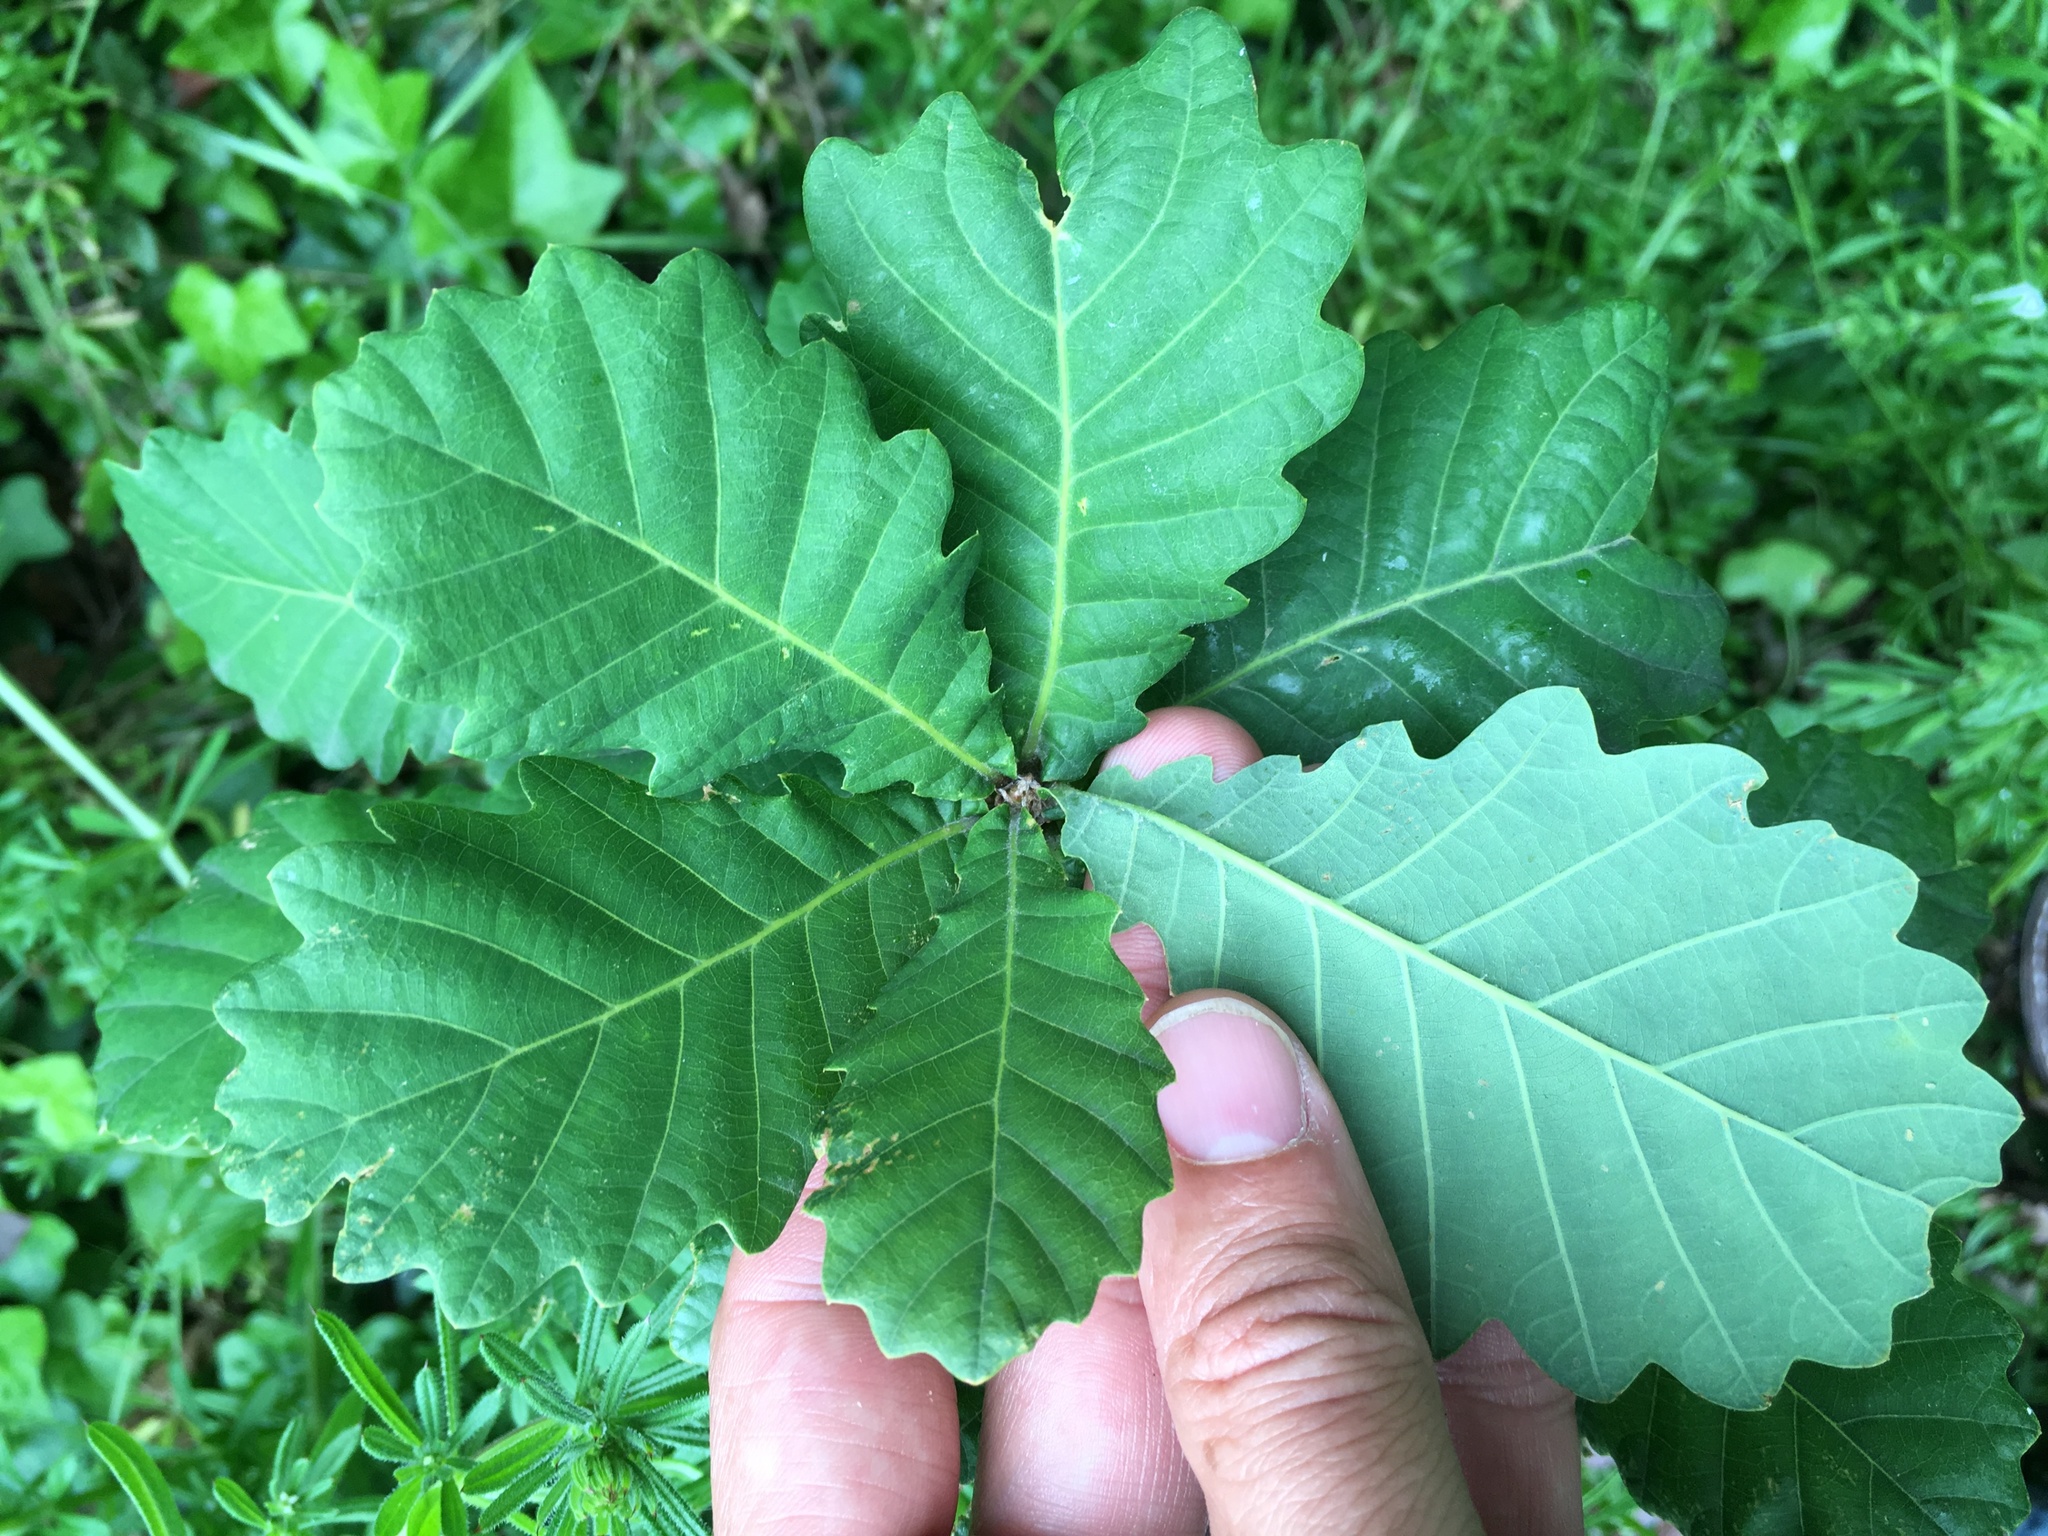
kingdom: Plantae
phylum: Tracheophyta
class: Magnoliopsida
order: Fagales
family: Fagaceae
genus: Quercus
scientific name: Quercus robur
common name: Pedunculate oak
